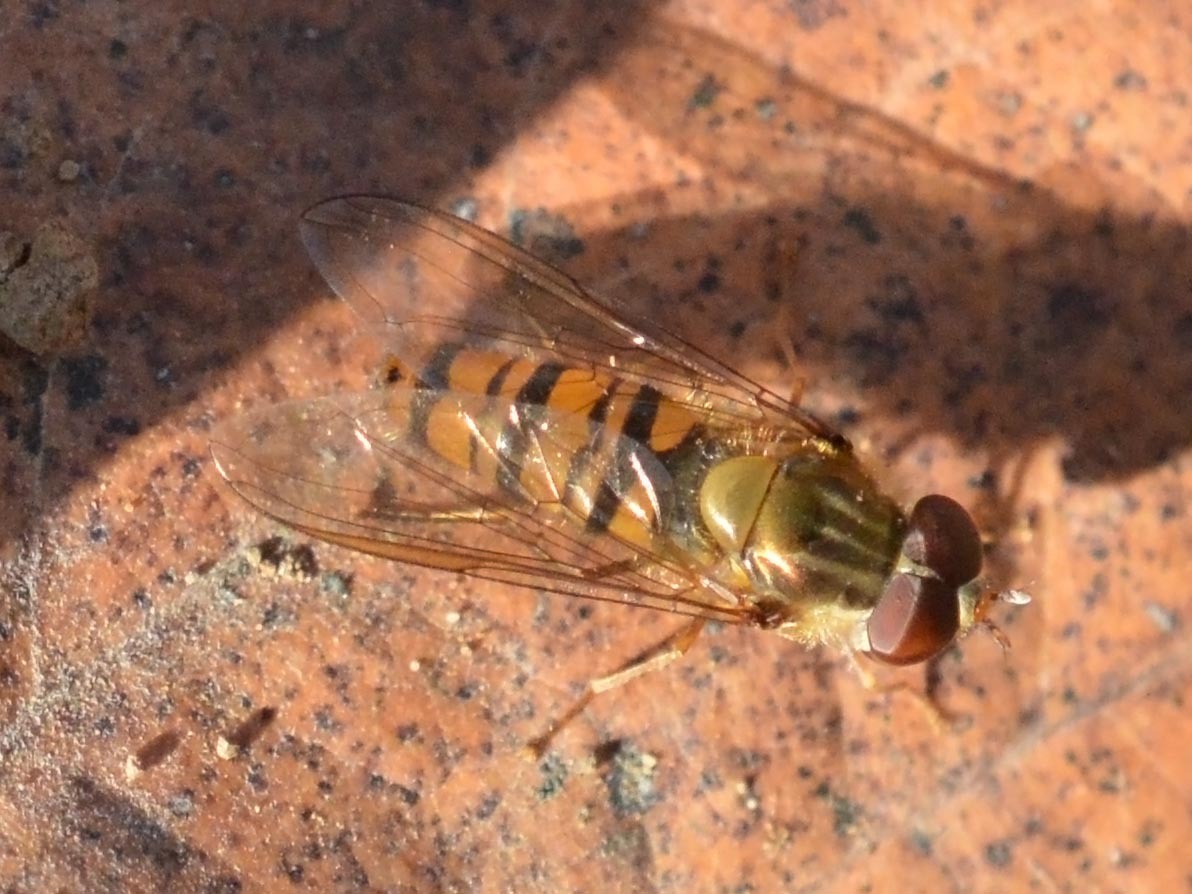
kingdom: Animalia
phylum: Arthropoda
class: Insecta
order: Diptera
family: Syrphidae
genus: Episyrphus
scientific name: Episyrphus balteatus
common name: Marmalade hoverfly
